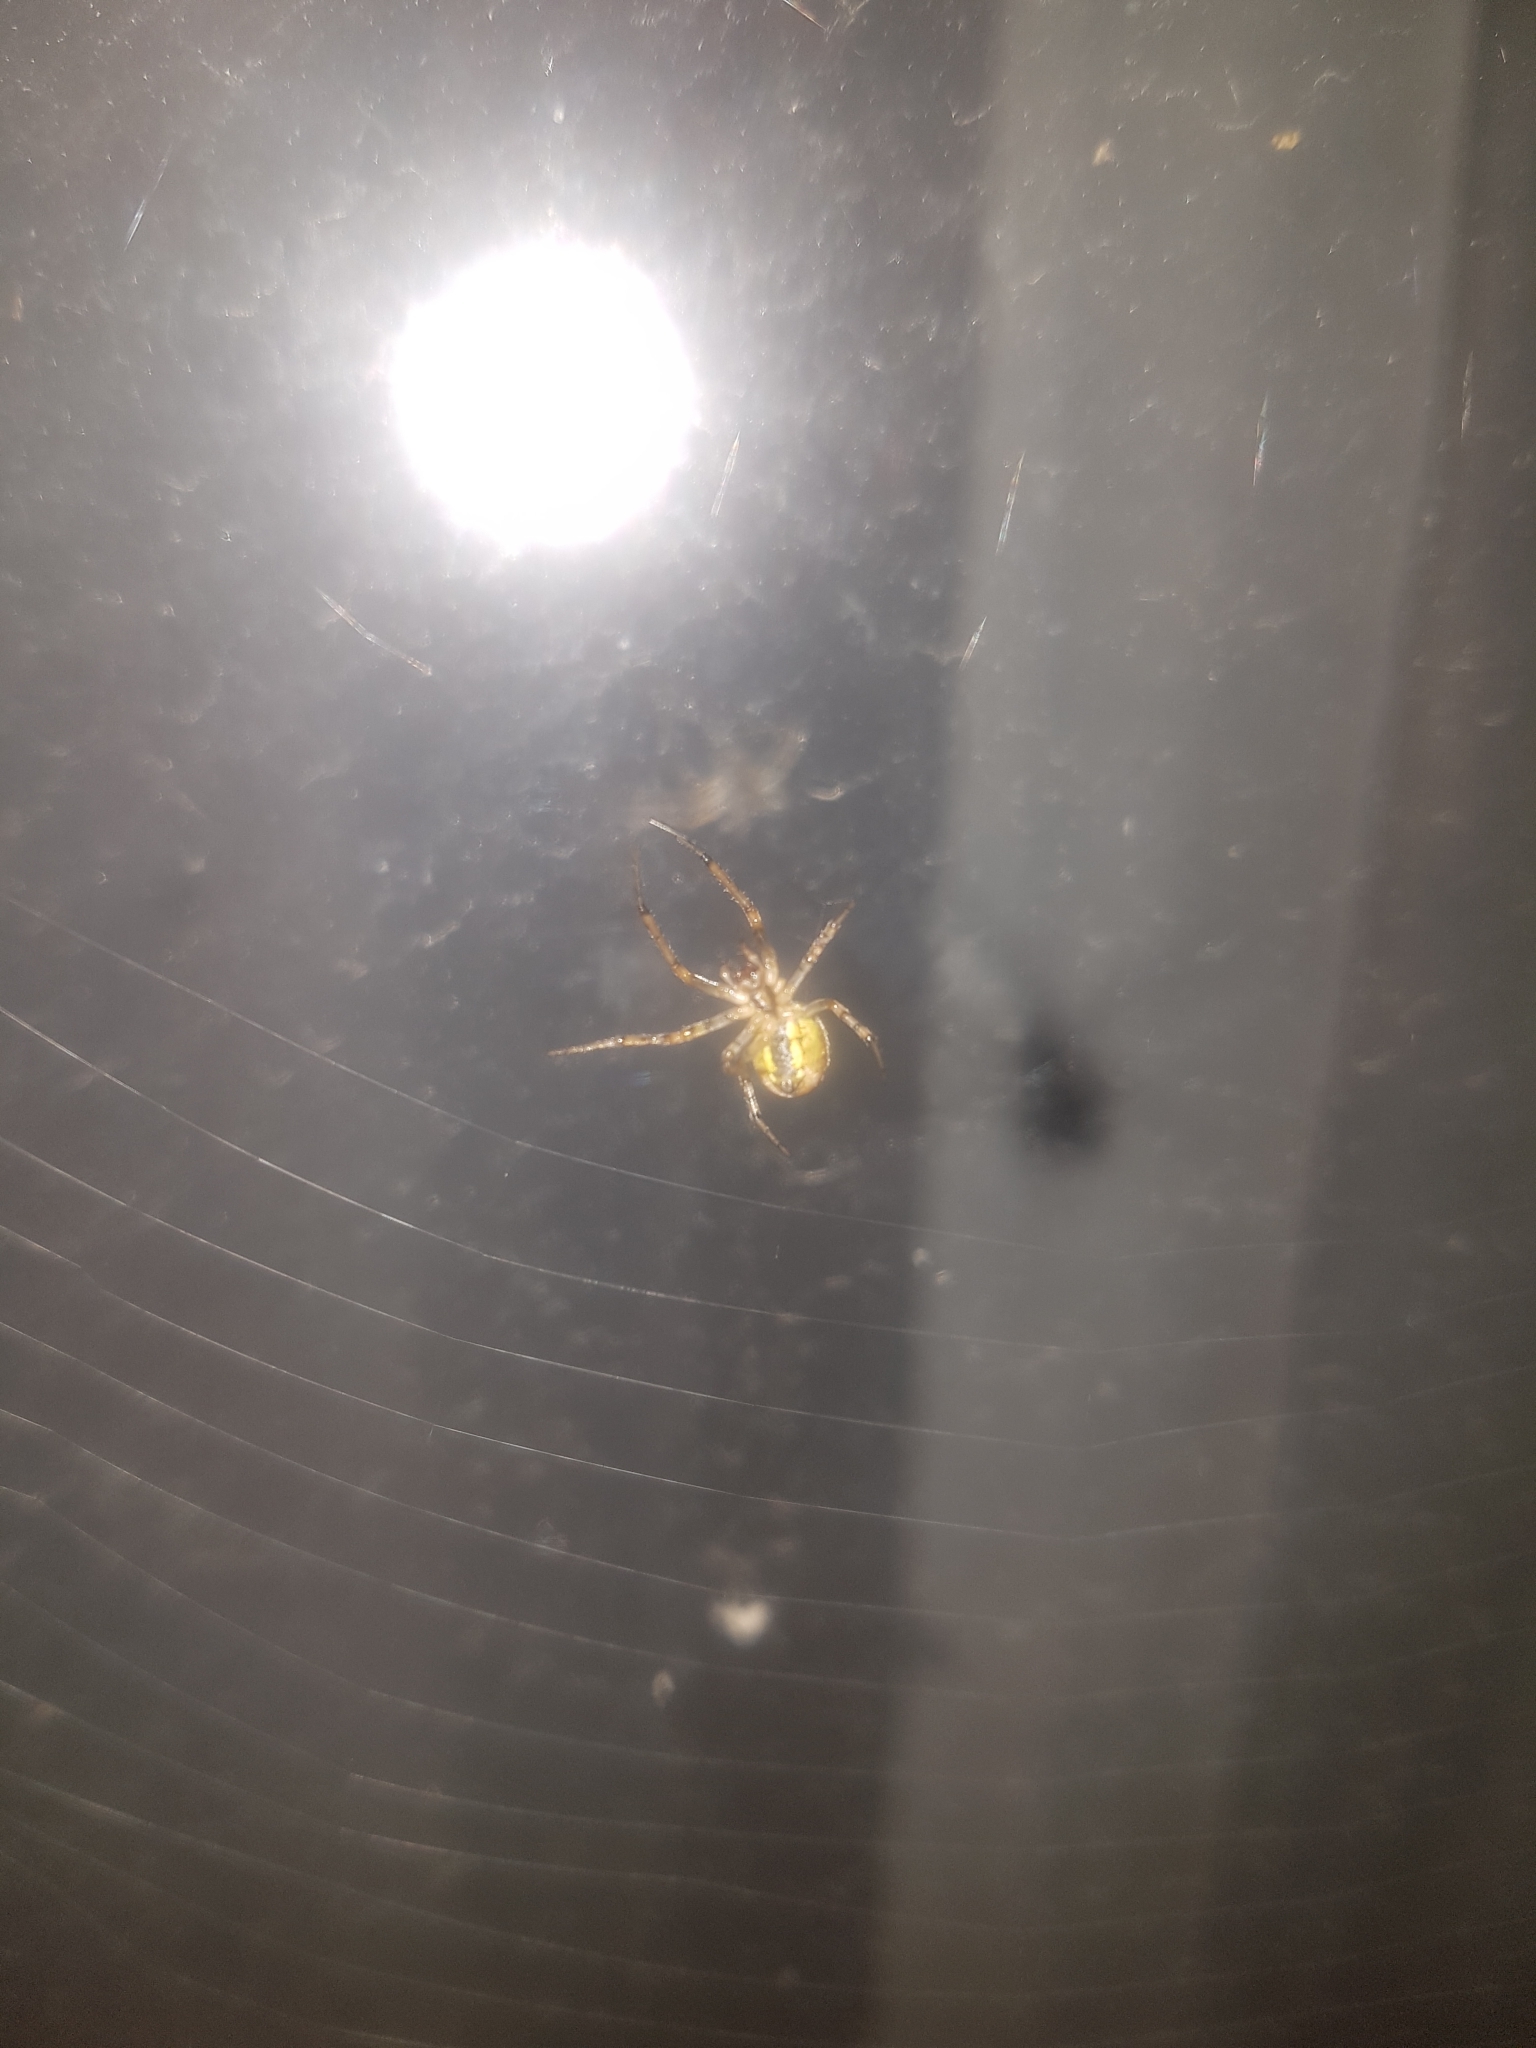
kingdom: Animalia
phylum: Arthropoda
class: Arachnida
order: Araneae
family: Araneidae
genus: Zygiella
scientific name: Zygiella x-notata
